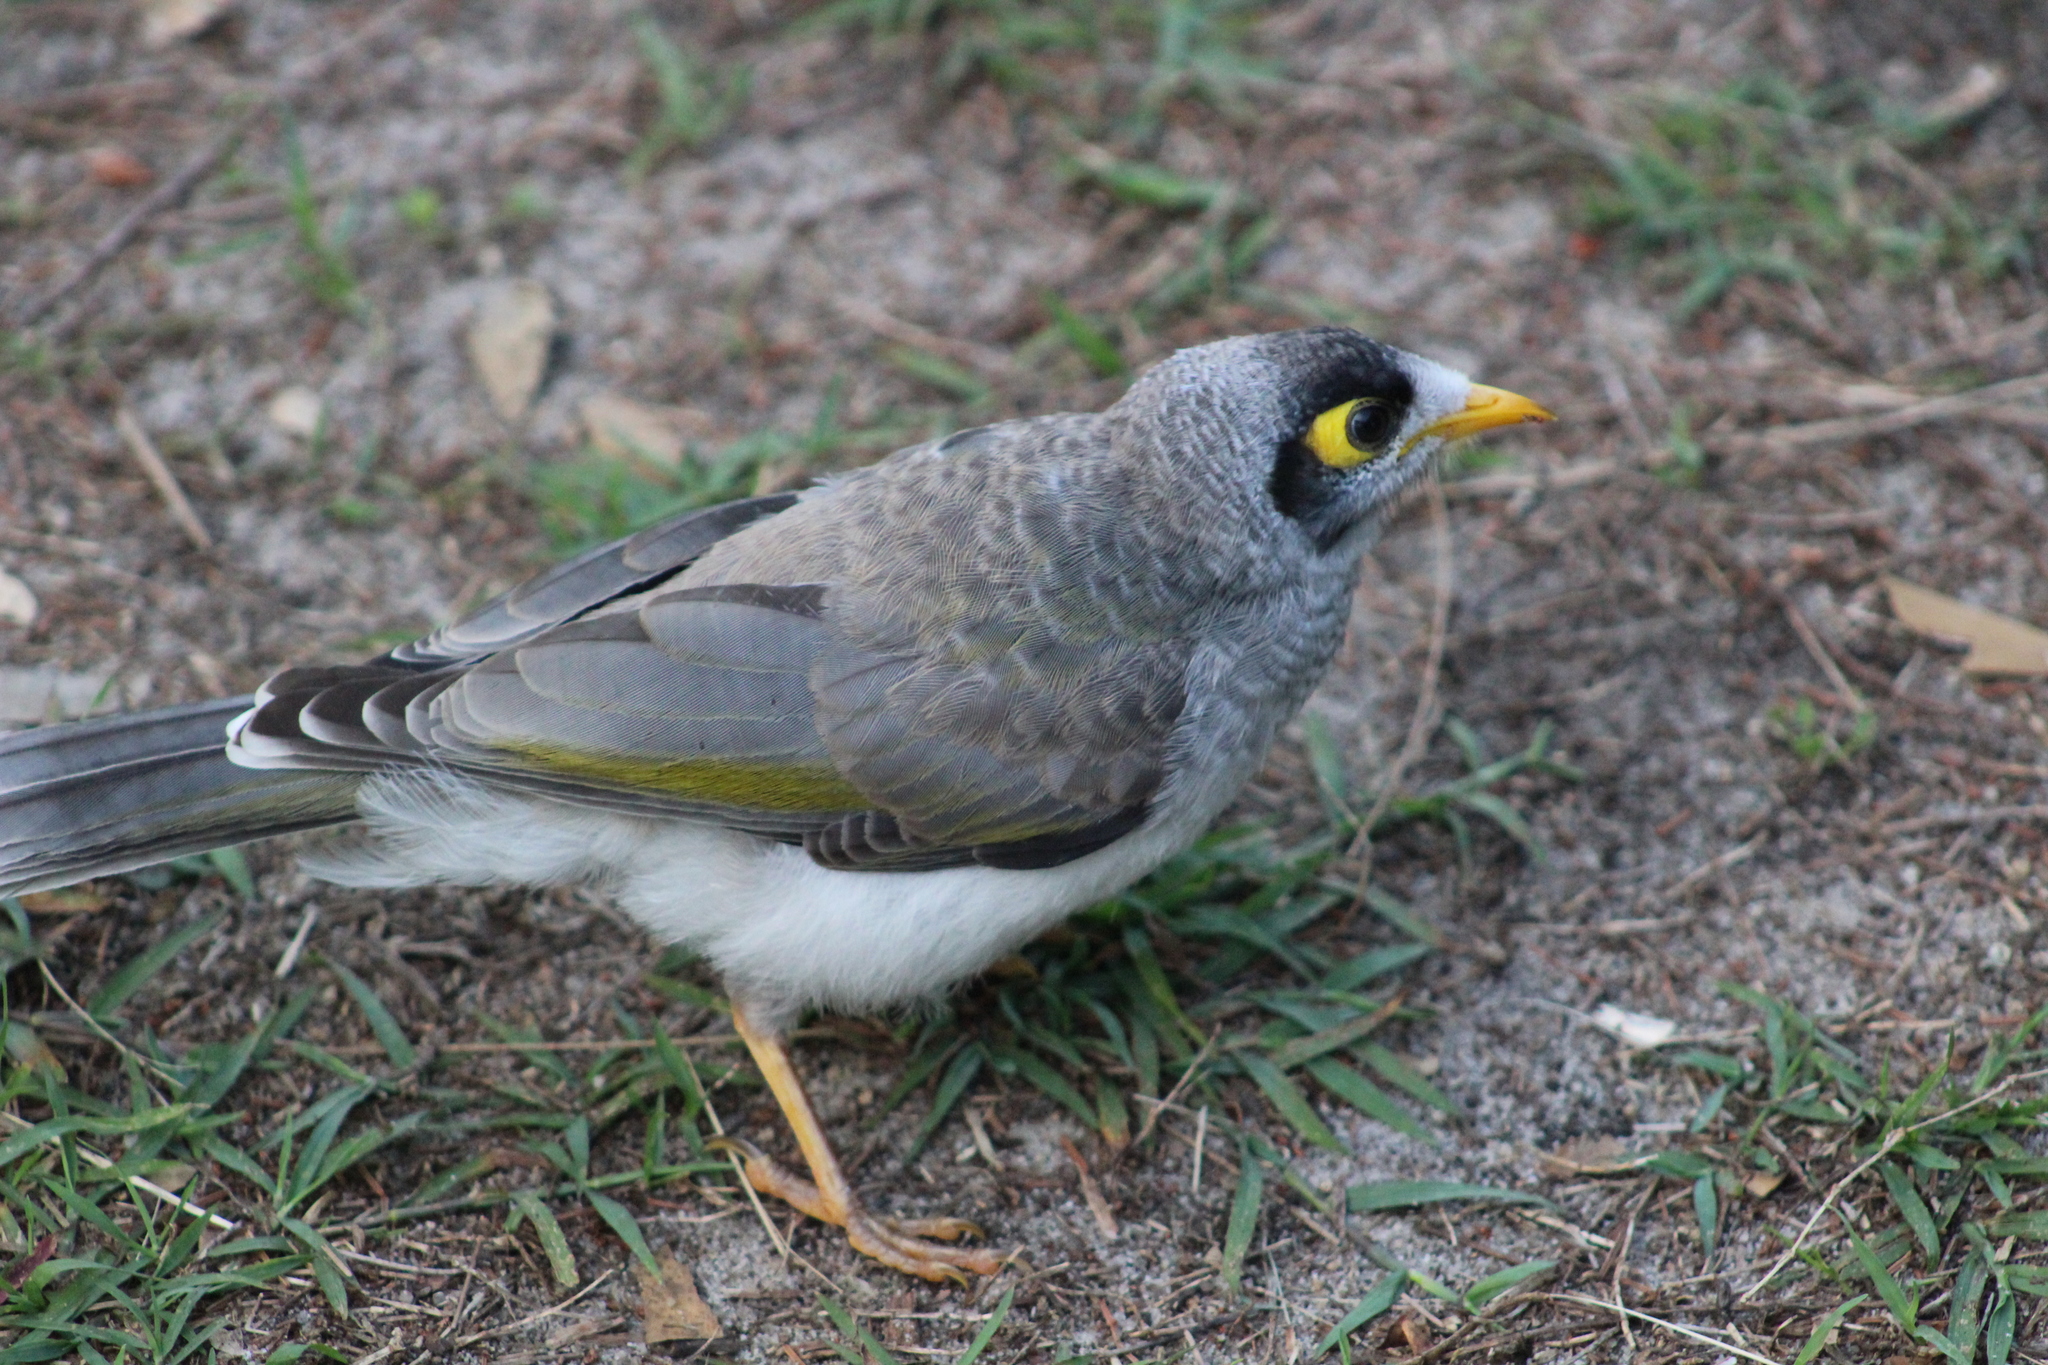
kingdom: Animalia
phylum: Chordata
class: Aves
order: Passeriformes
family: Meliphagidae
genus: Manorina
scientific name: Manorina melanocephala
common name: Noisy miner
